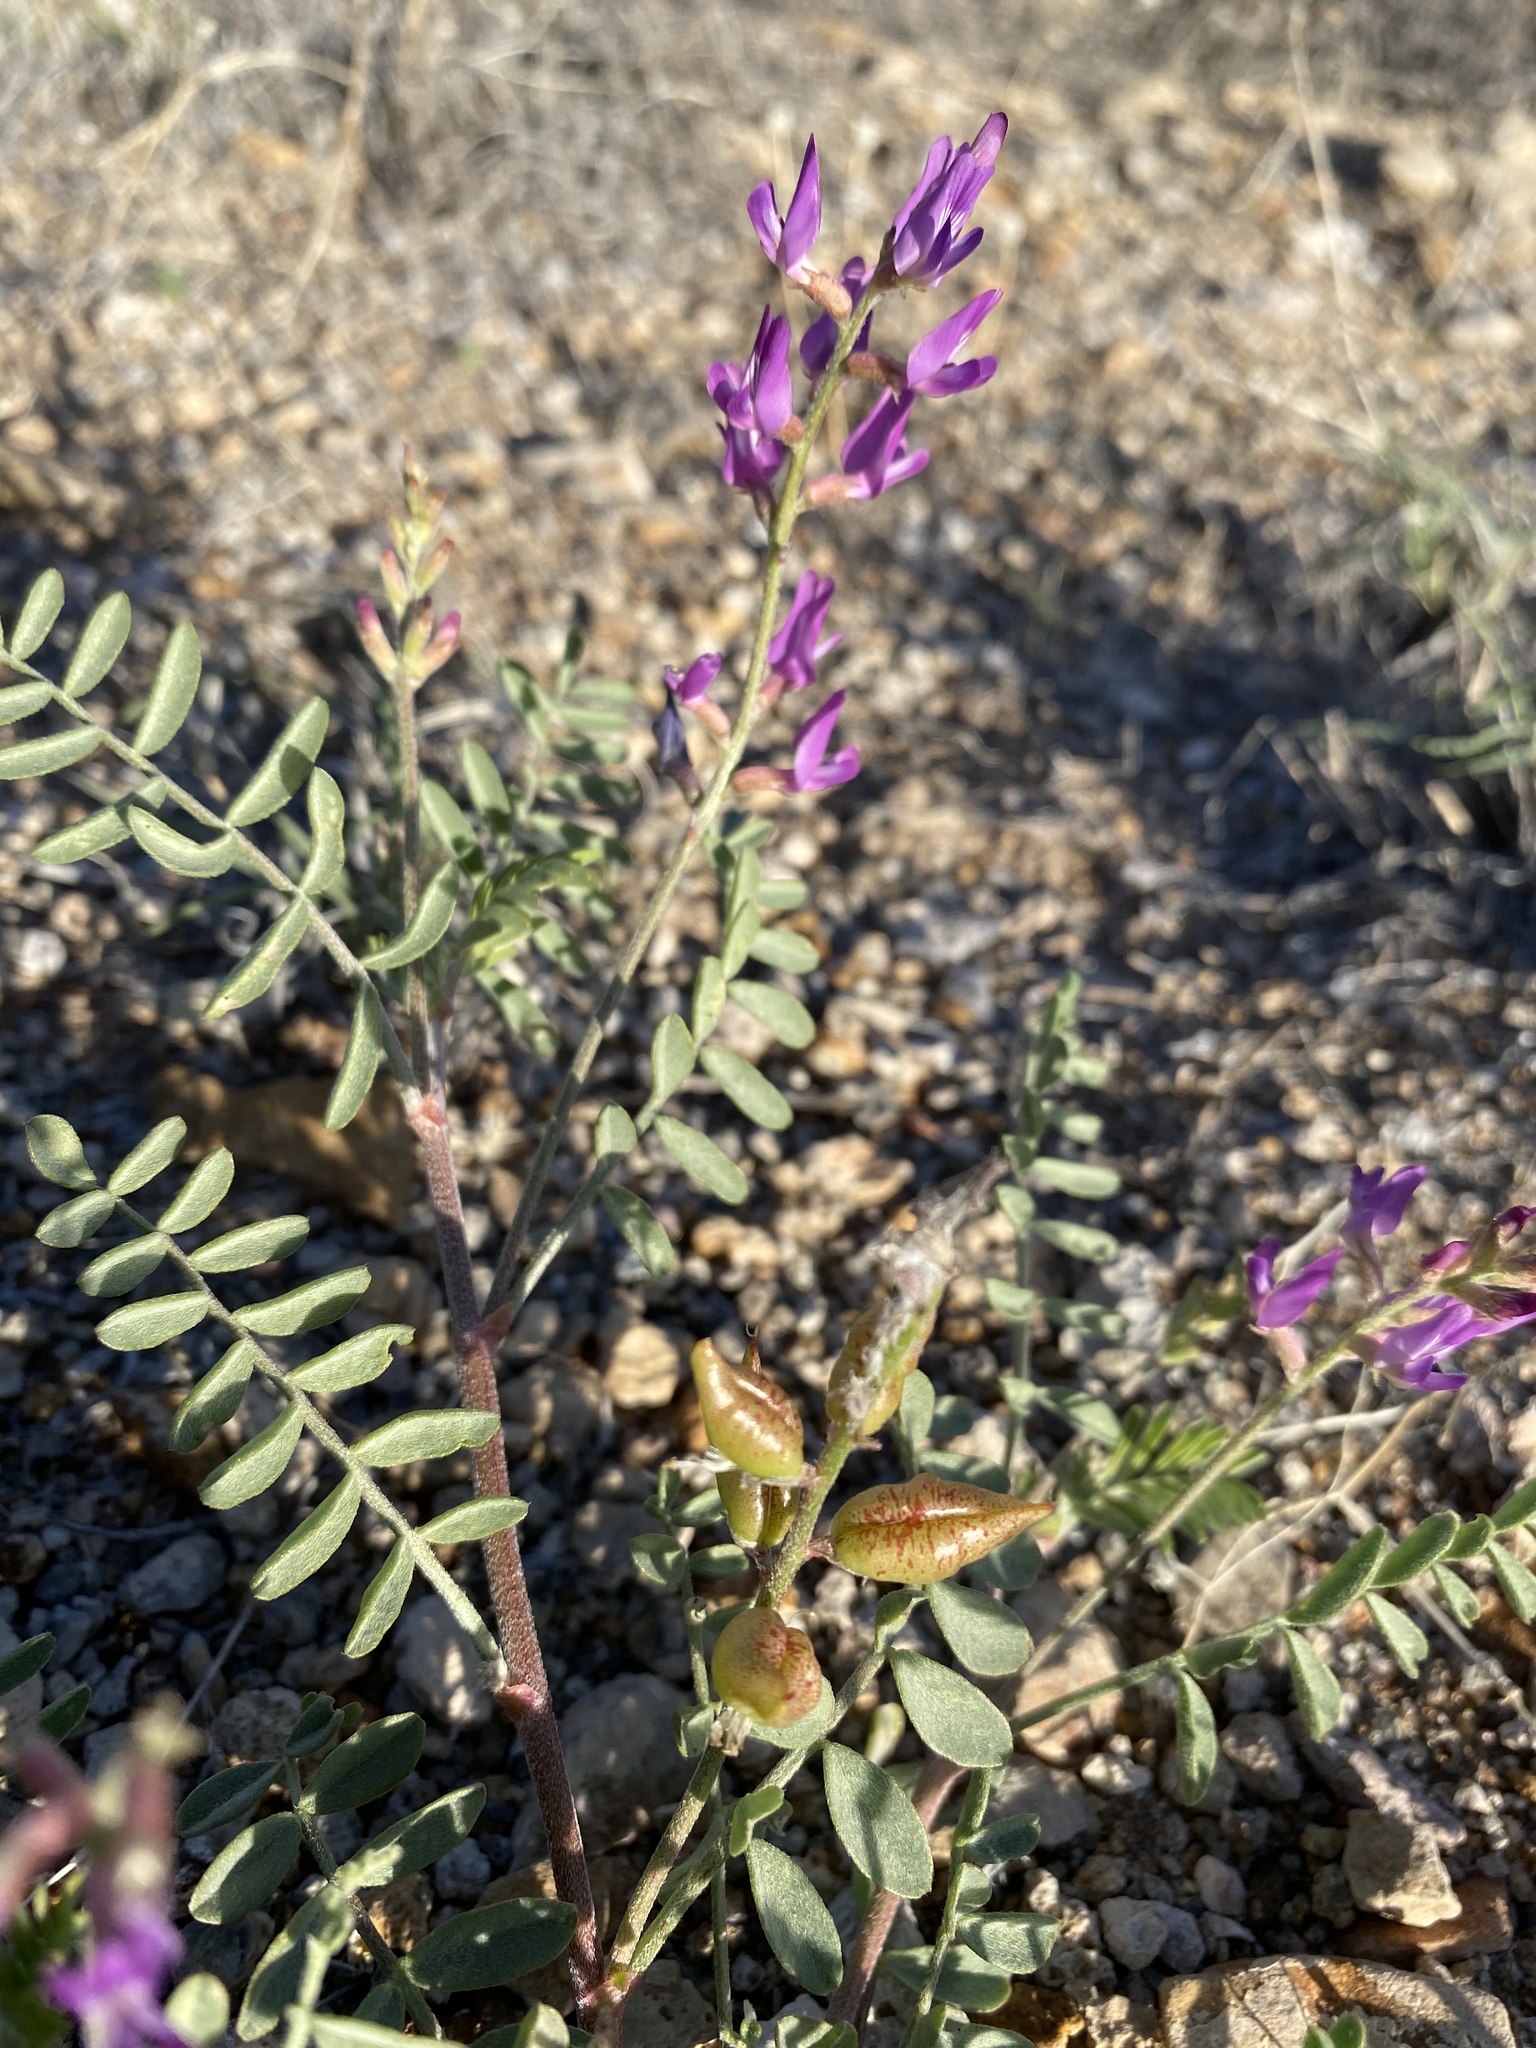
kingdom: Plantae
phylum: Tracheophyta
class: Magnoliopsida
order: Fabales
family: Fabaceae
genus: Astragalus
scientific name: Astragalus lentiginosus
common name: Freckled milkvetch
